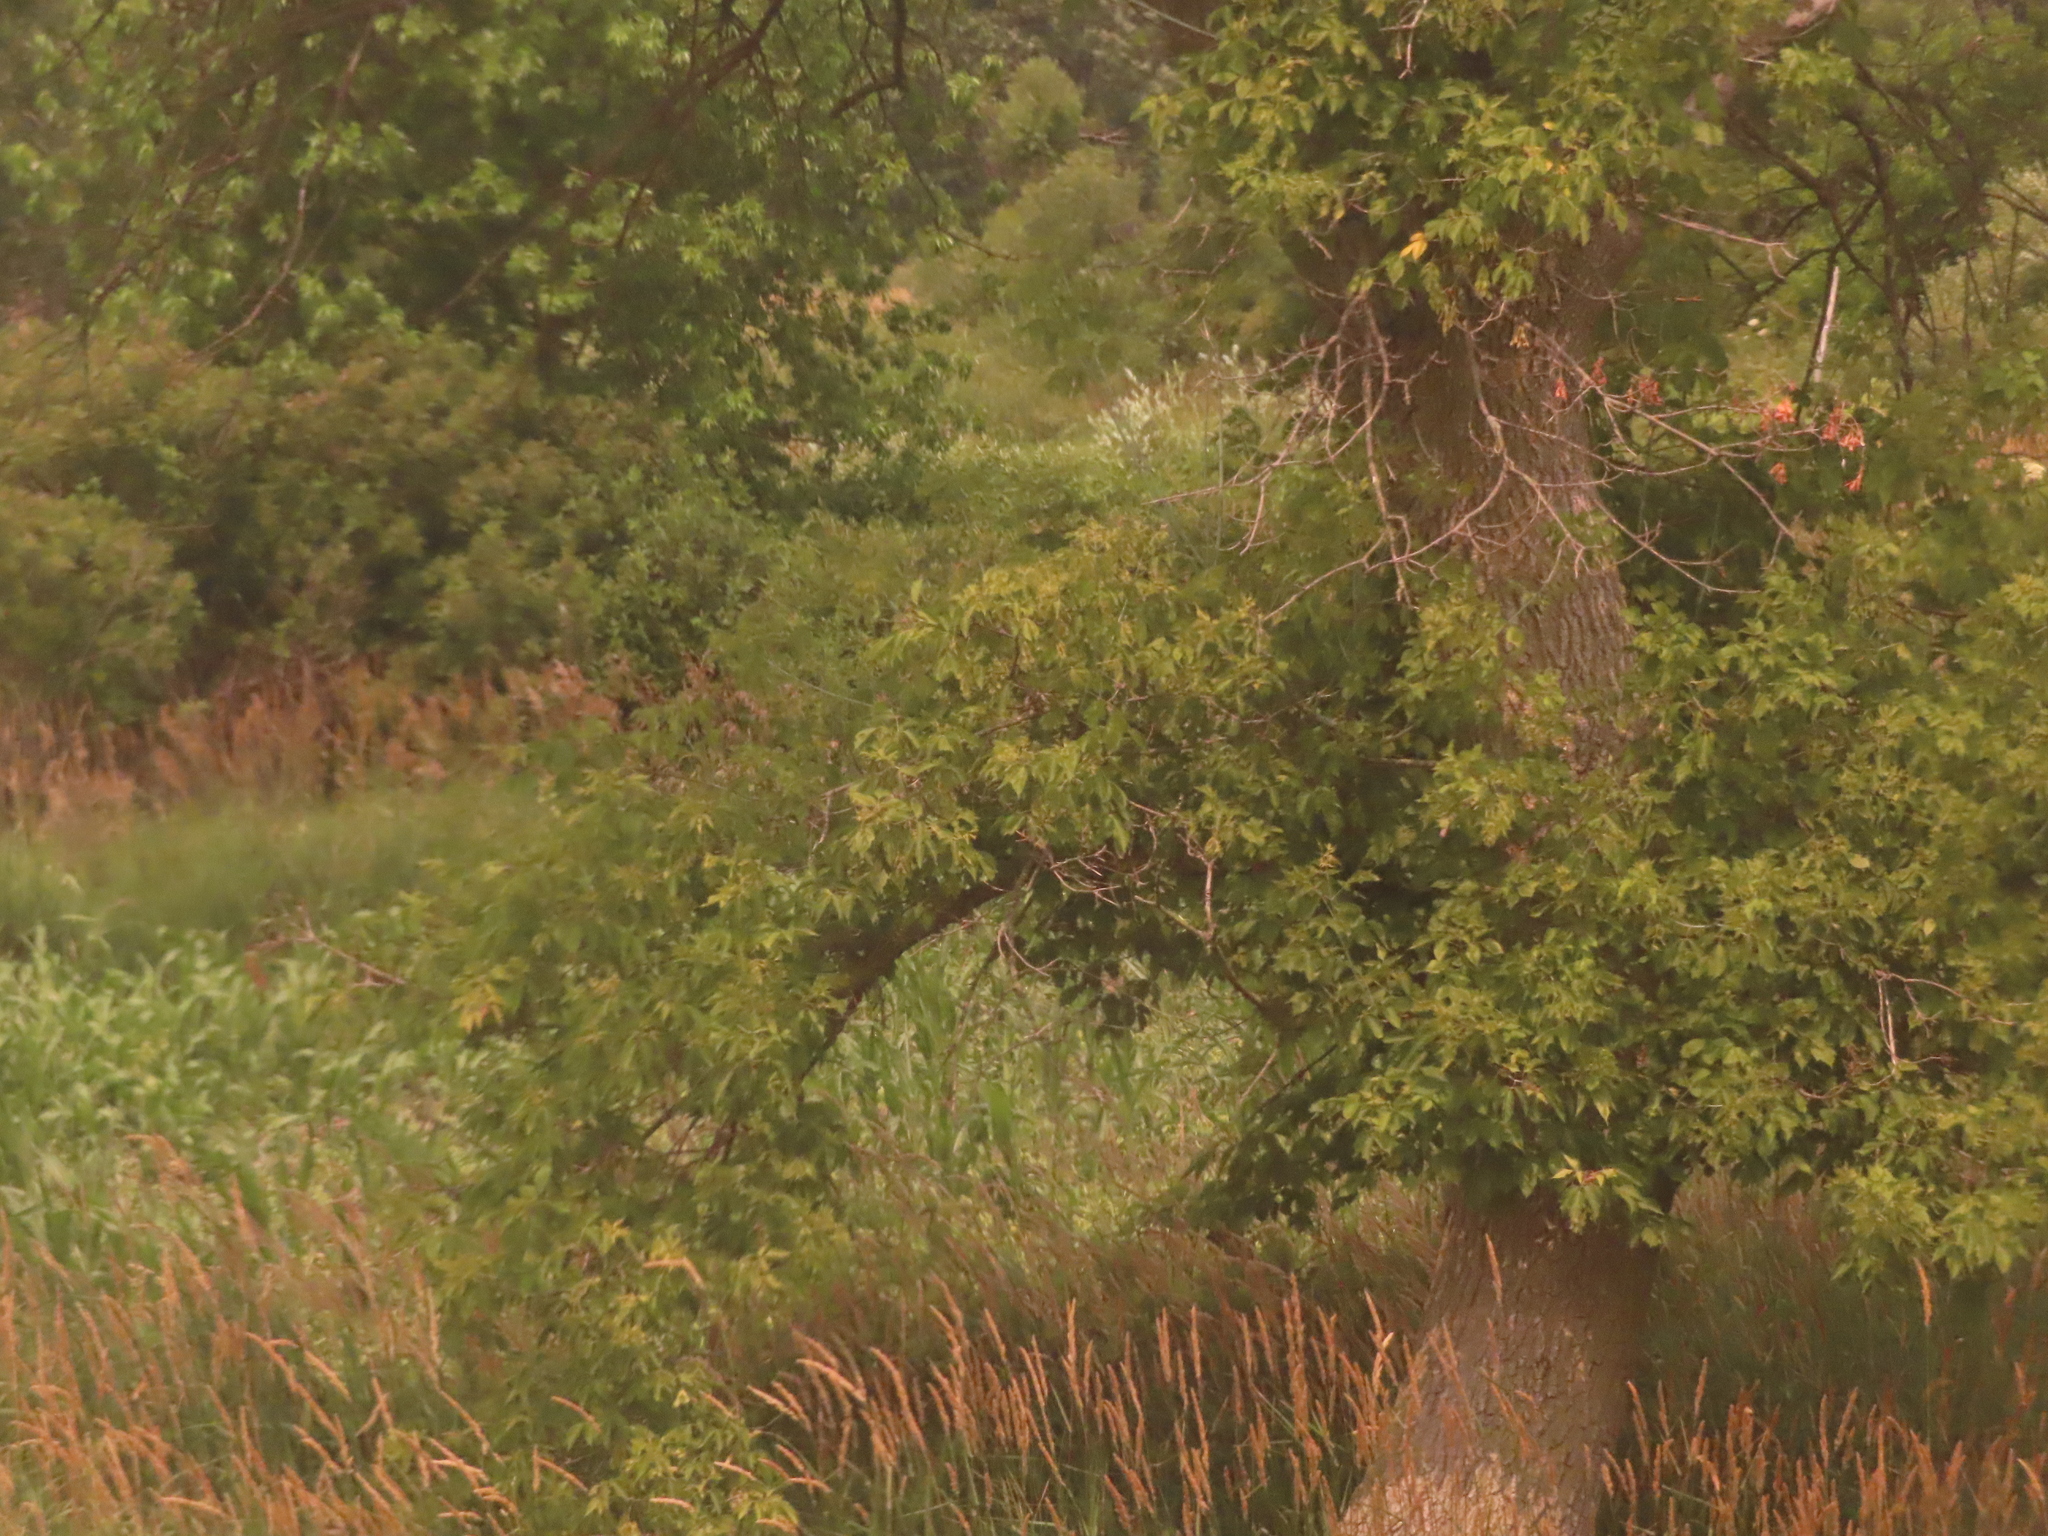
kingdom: Plantae
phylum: Tracheophyta
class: Magnoliopsida
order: Sapindales
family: Sapindaceae
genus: Acer
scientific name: Acer negundo
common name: Ashleaf maple
